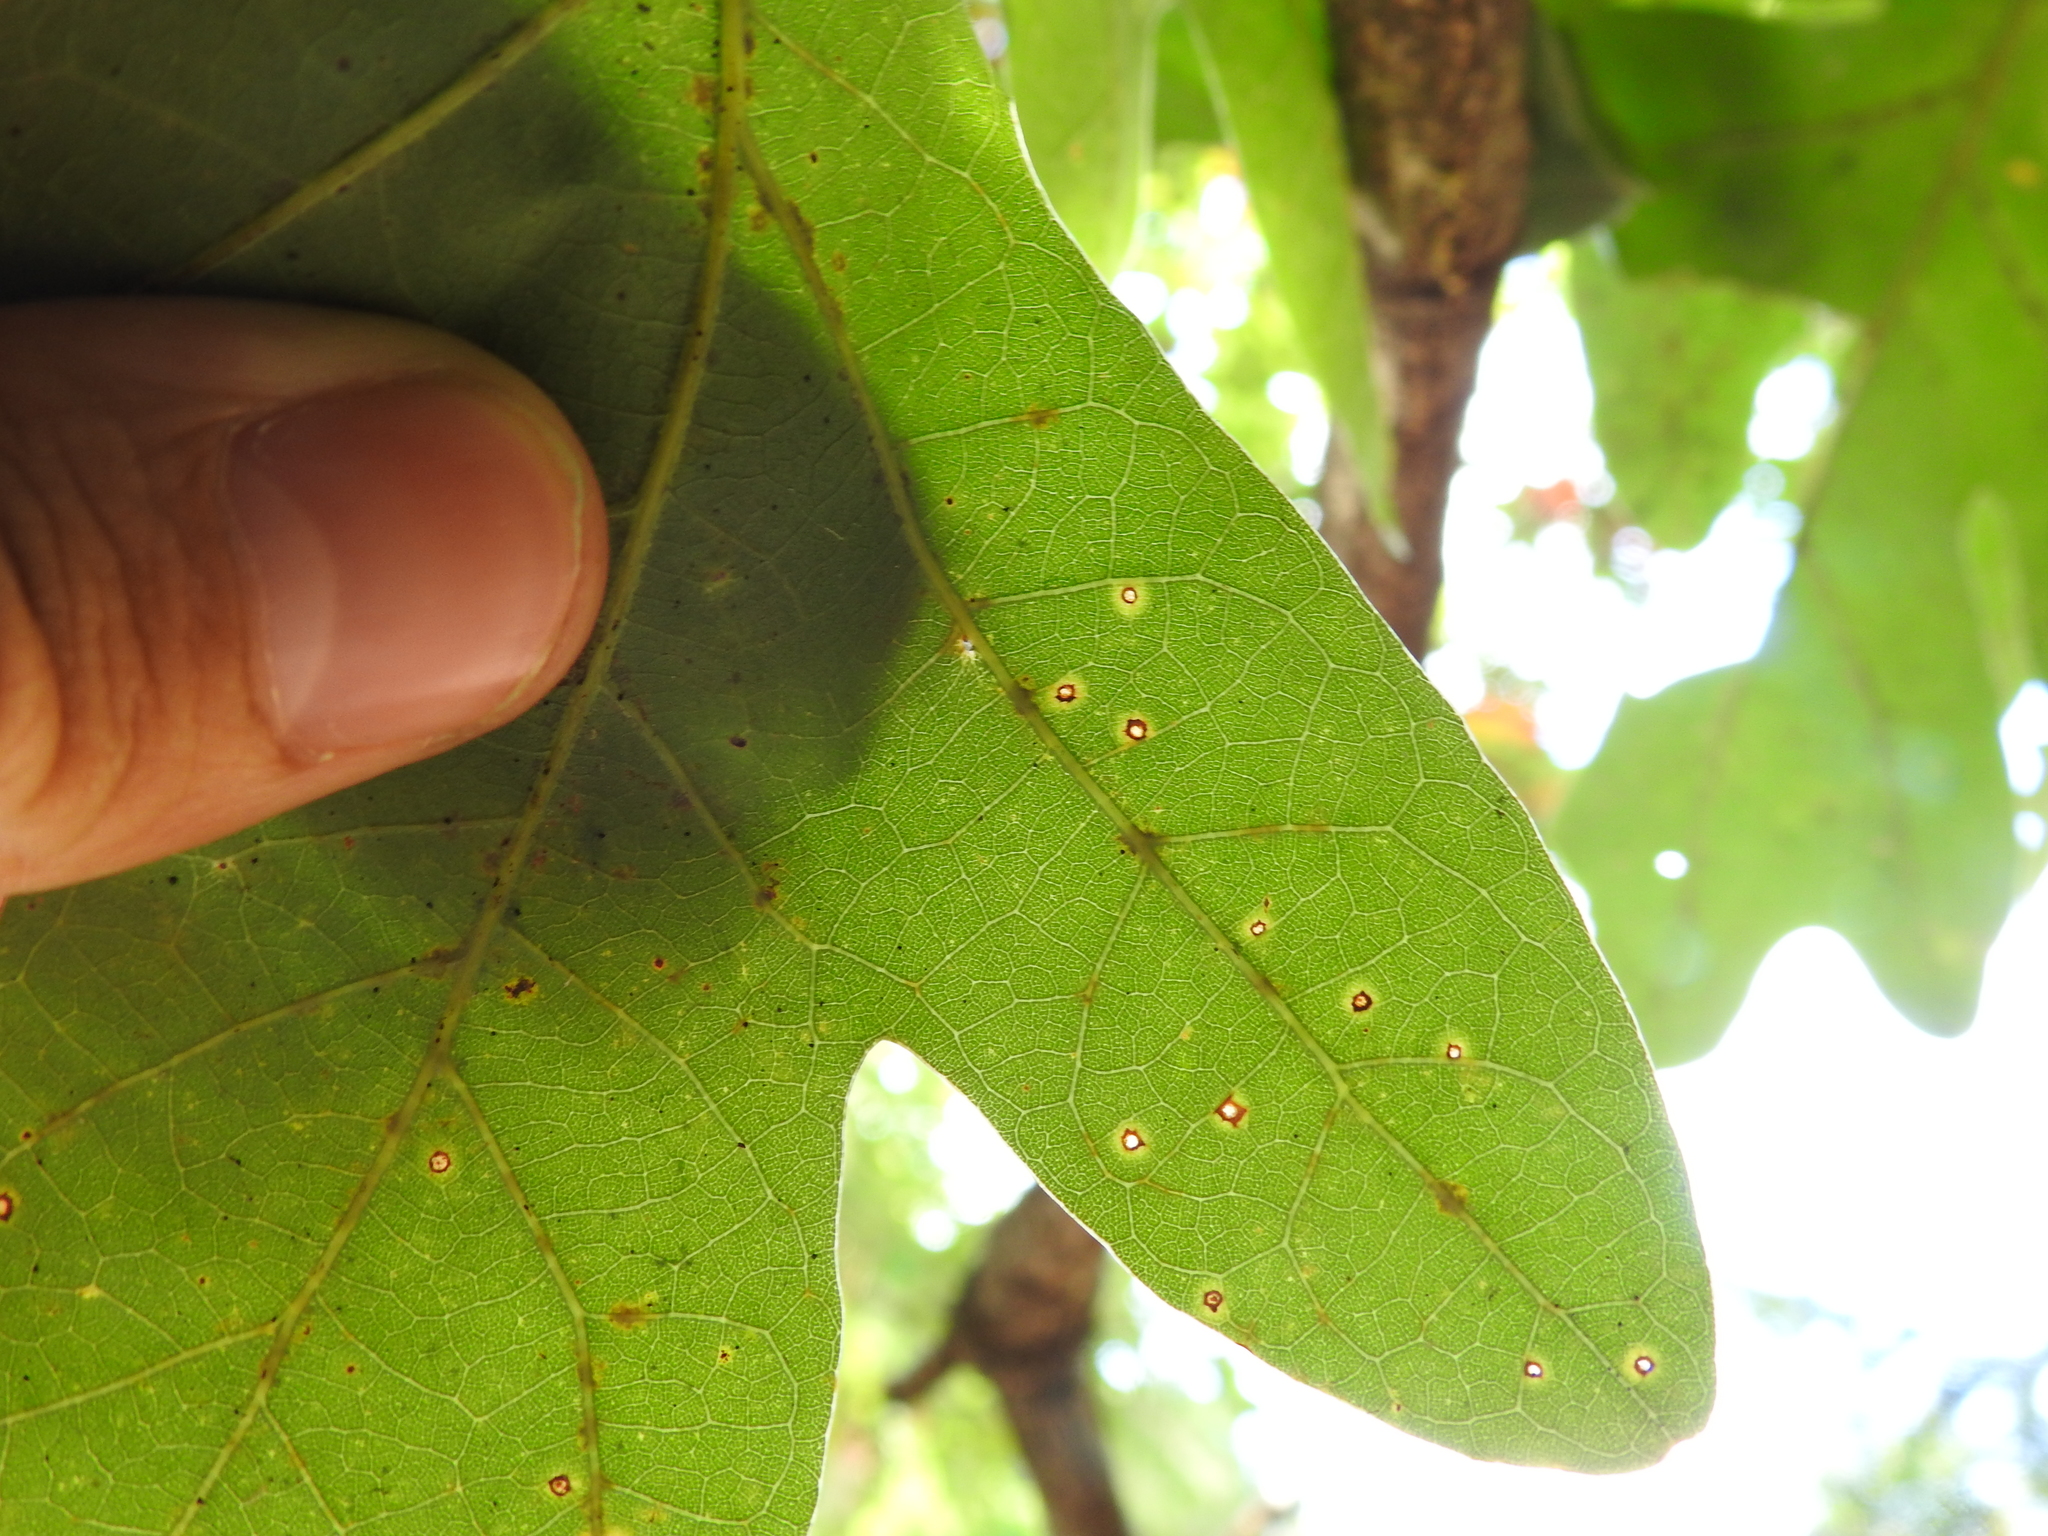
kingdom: Animalia
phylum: Arthropoda
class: Insecta
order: Hymenoptera
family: Cynipidae
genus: Neuroterus
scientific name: Neuroterus
